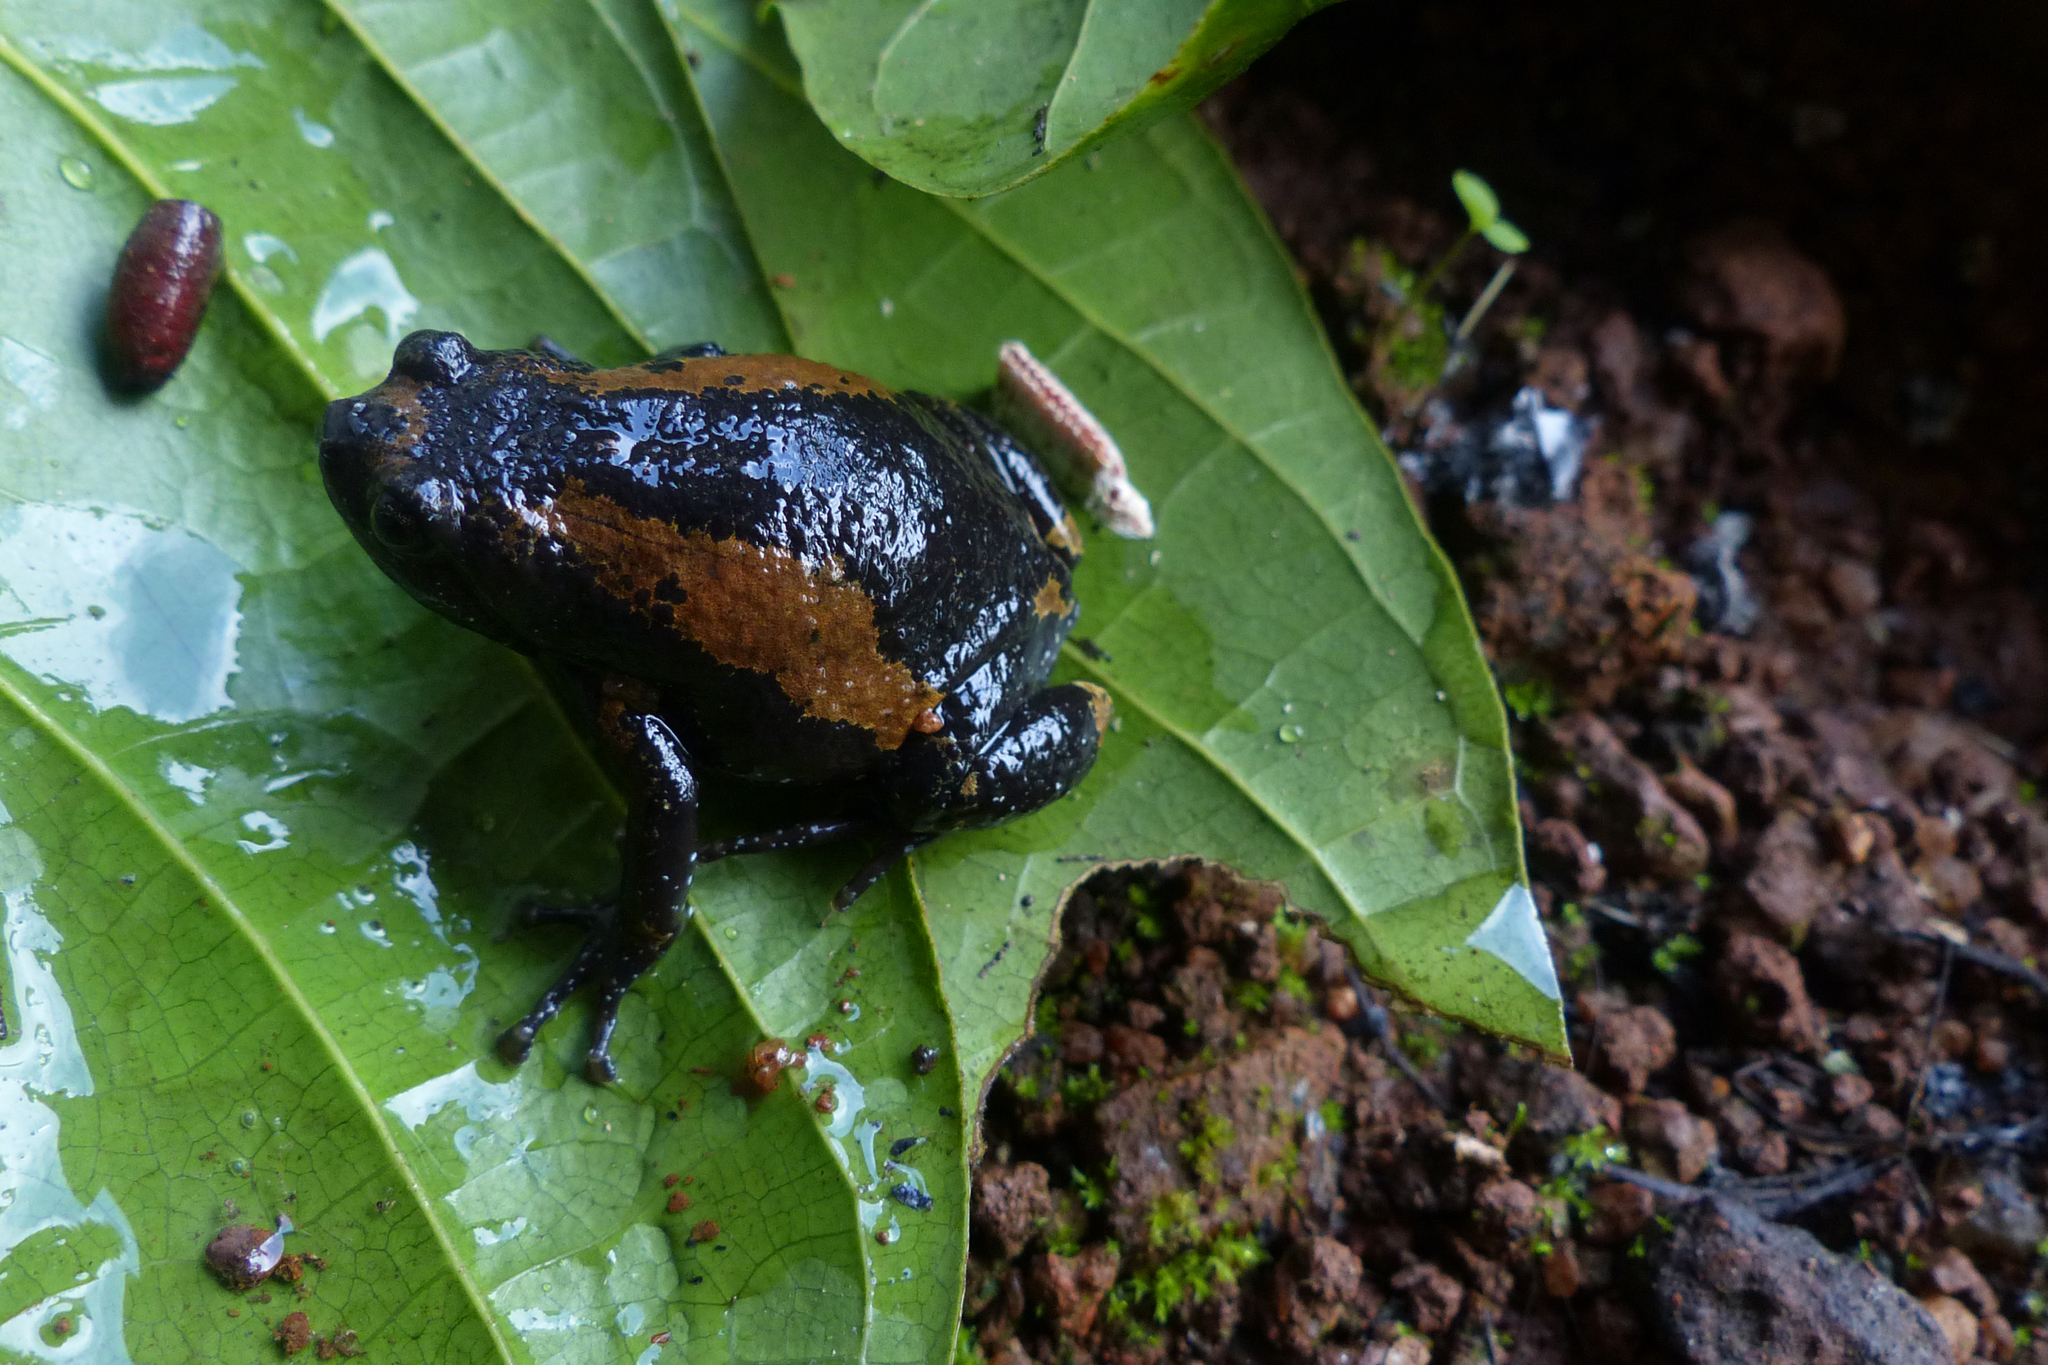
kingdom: Animalia
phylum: Chordata
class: Amphibia
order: Anura
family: Microhylidae
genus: Uperodon
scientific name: Uperodon triangularis
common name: Malabar dot frog
